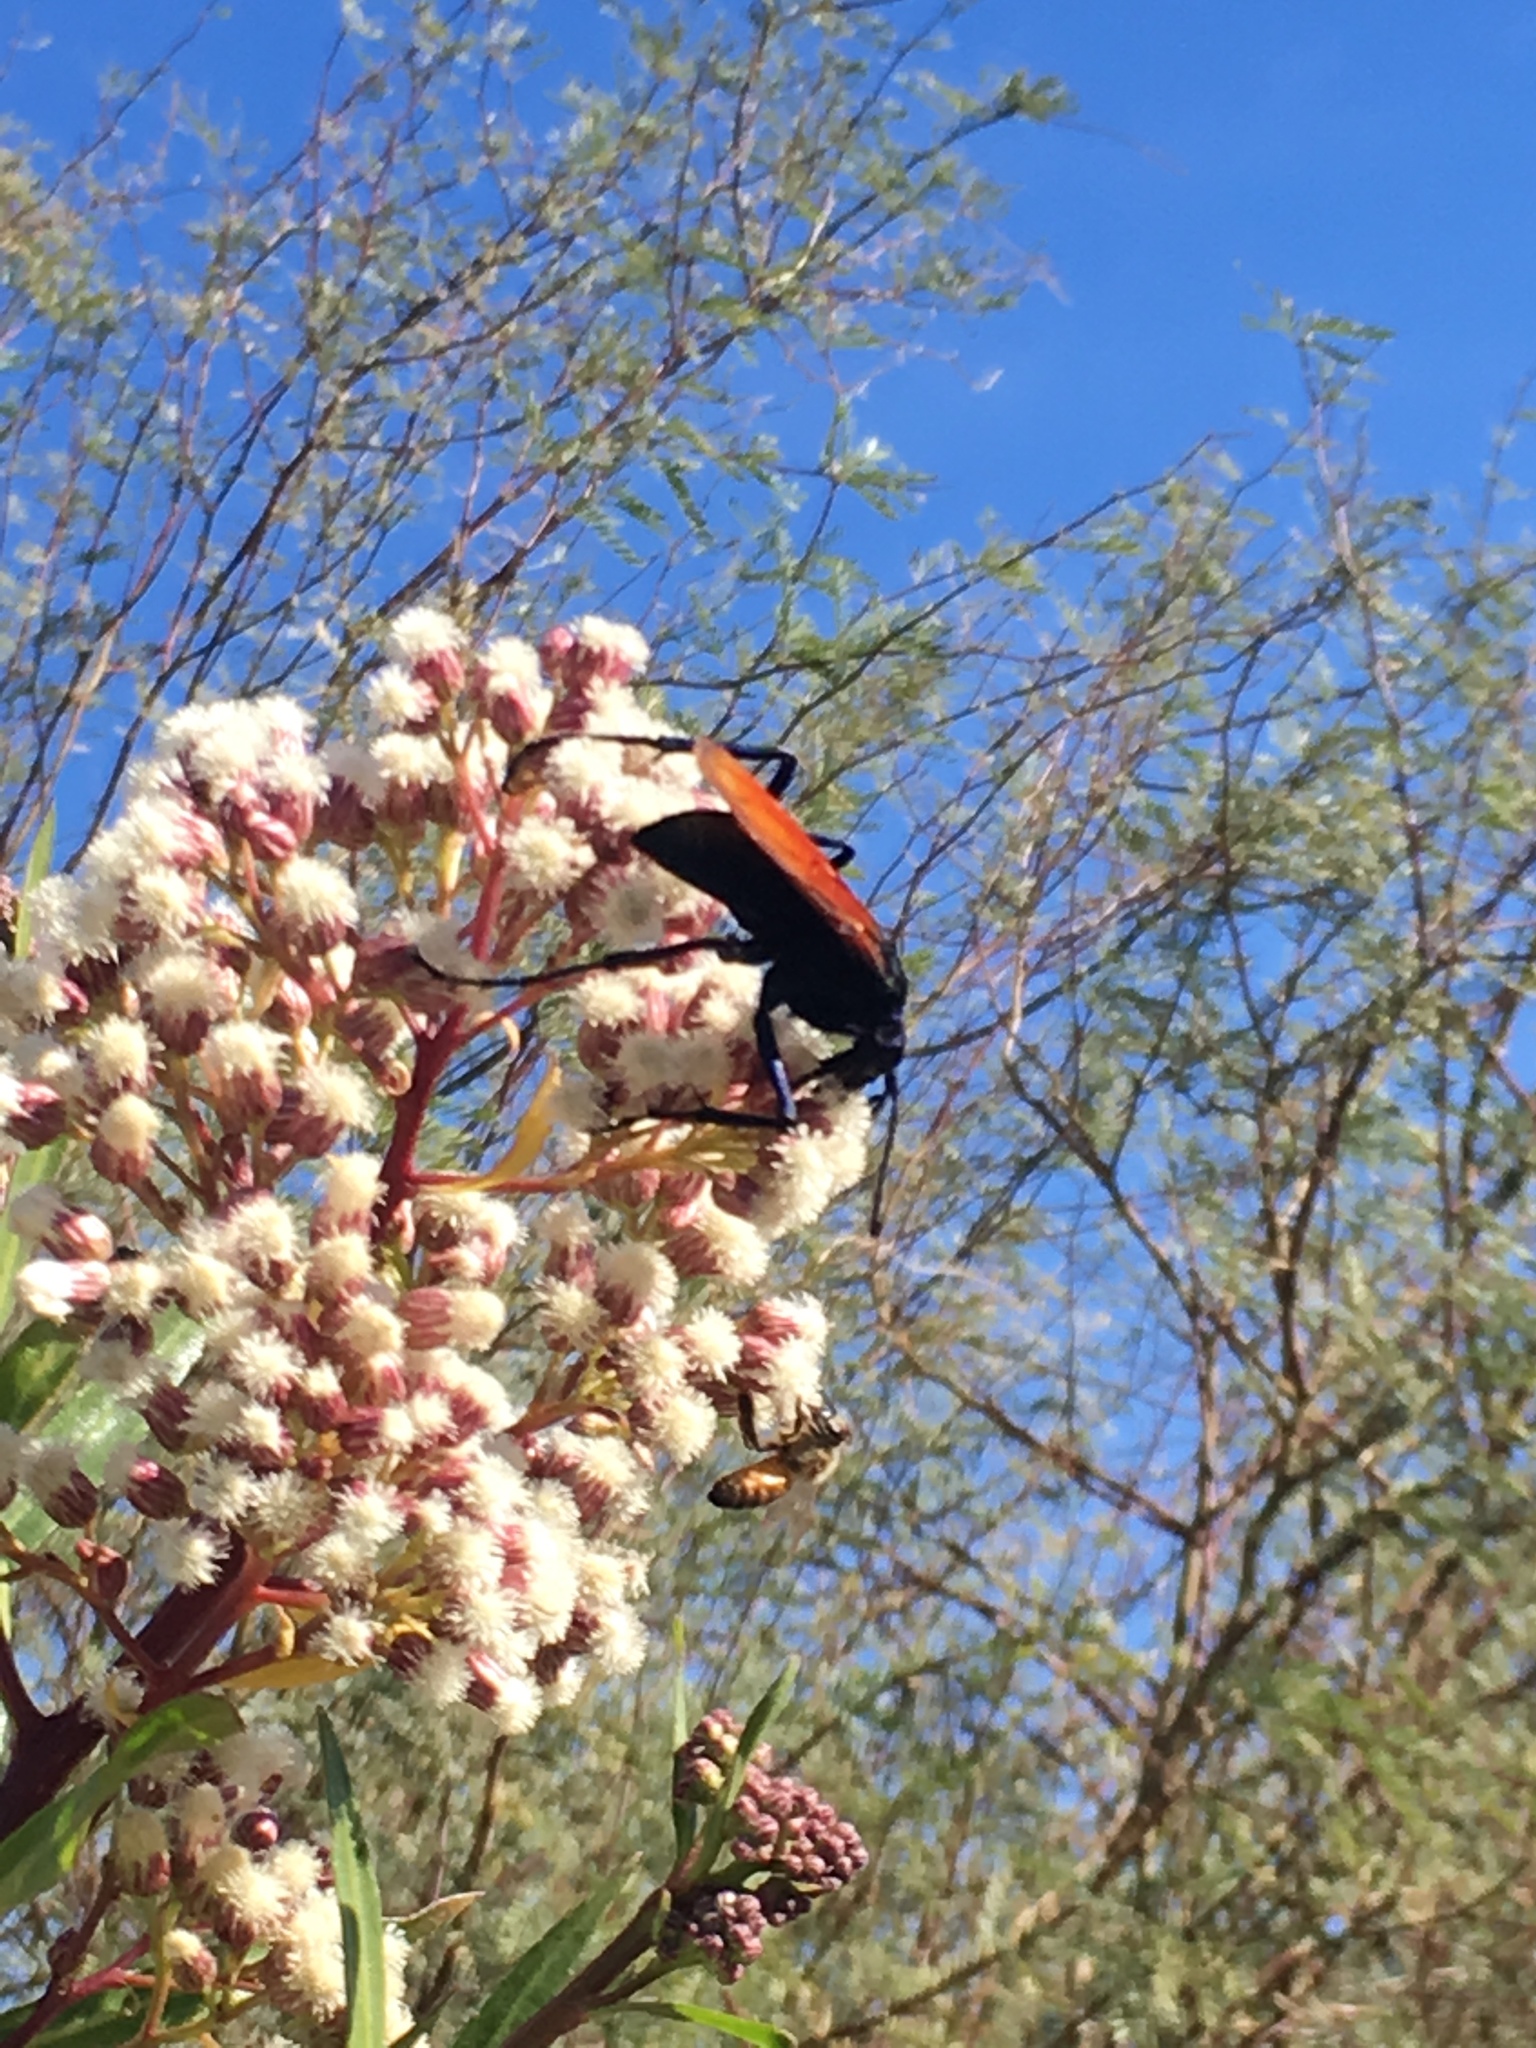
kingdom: Animalia
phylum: Arthropoda
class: Insecta
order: Hymenoptera
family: Pompilidae
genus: Pepsis
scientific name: Pepsis thisbe
